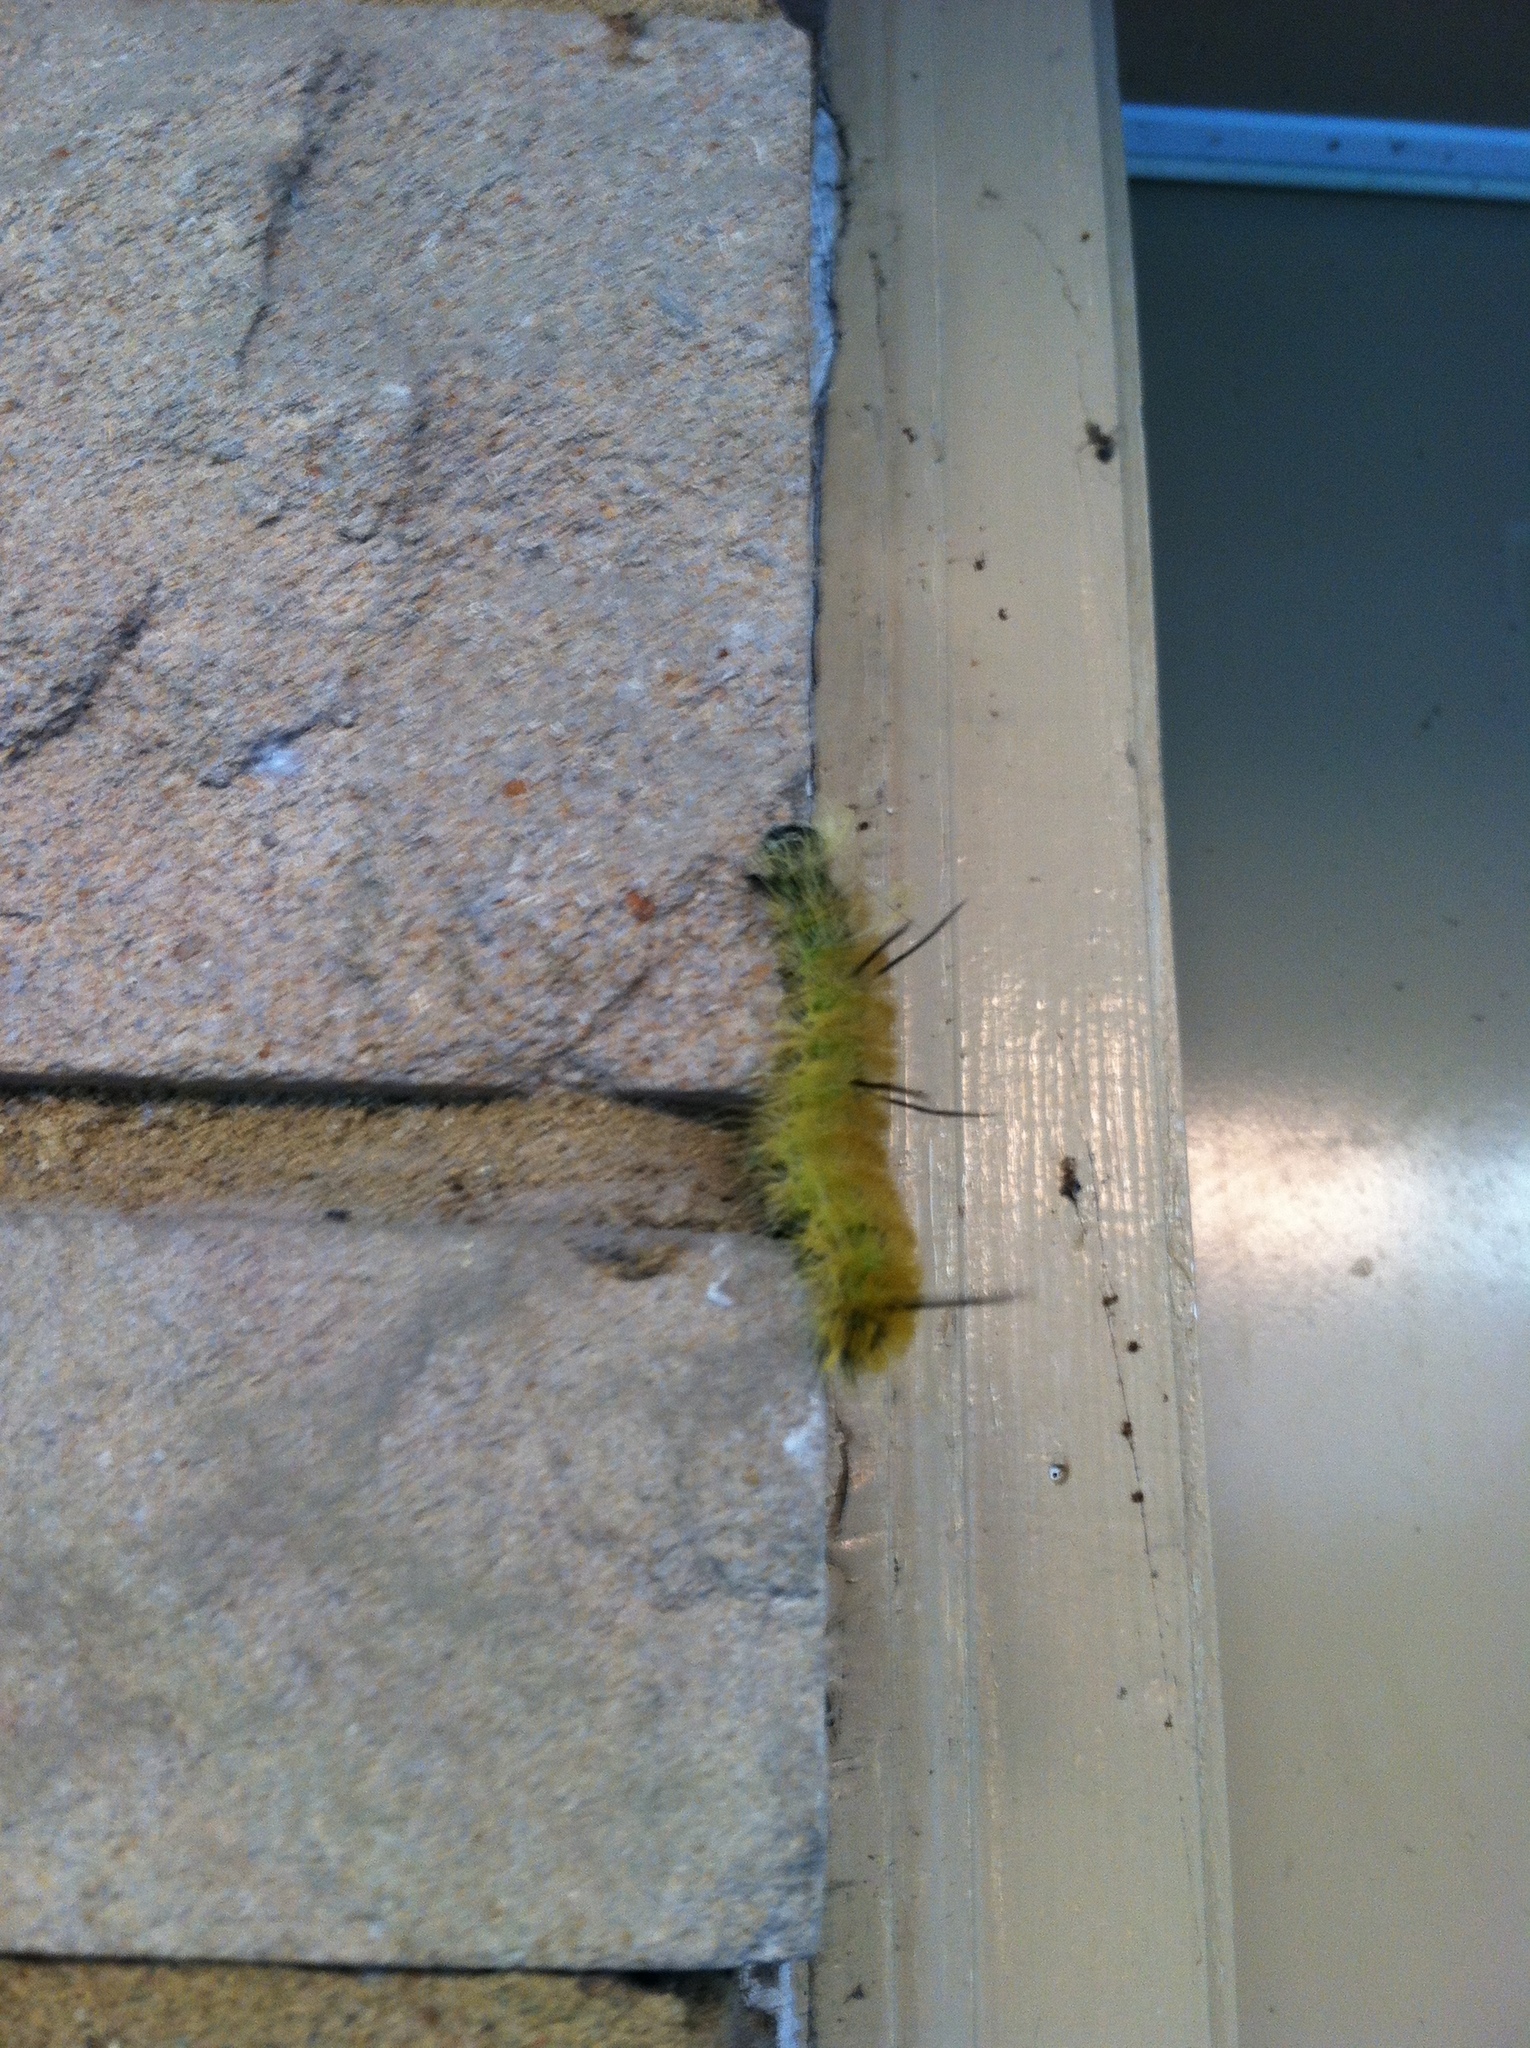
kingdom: Animalia
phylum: Arthropoda
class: Insecta
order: Lepidoptera
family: Noctuidae
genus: Acronicta
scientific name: Acronicta americana
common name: American dagger
